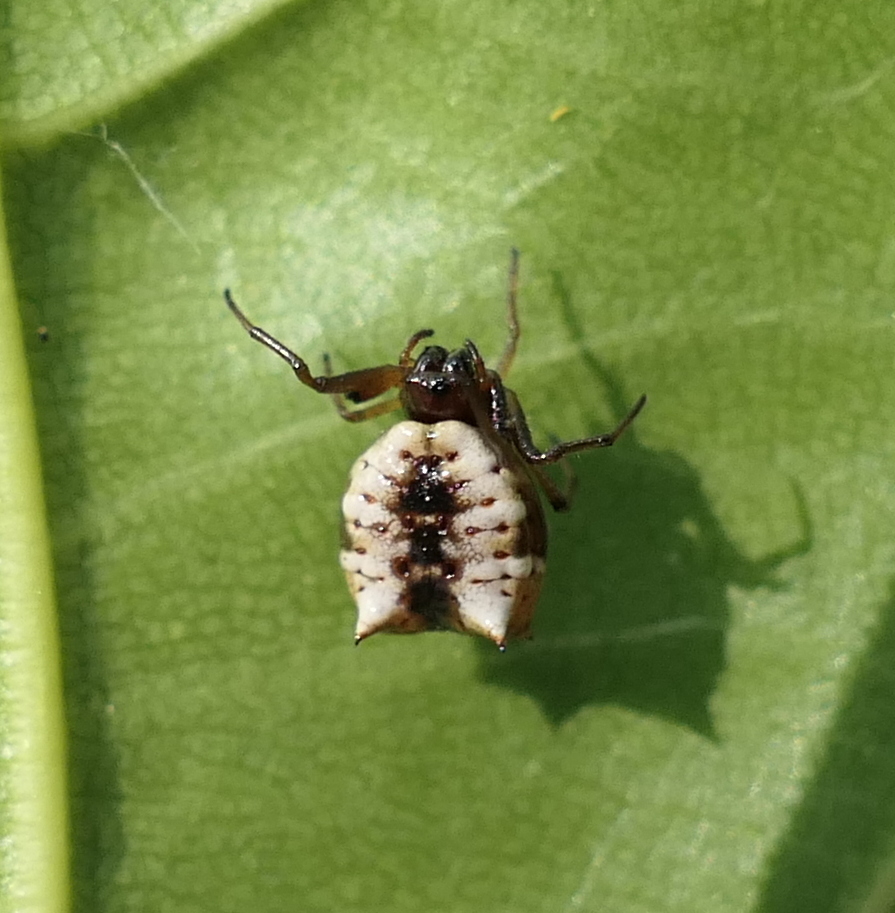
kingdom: Animalia
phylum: Arthropoda
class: Arachnida
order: Araneae
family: Araneidae
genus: Micrathena
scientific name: Micrathena patruelis
